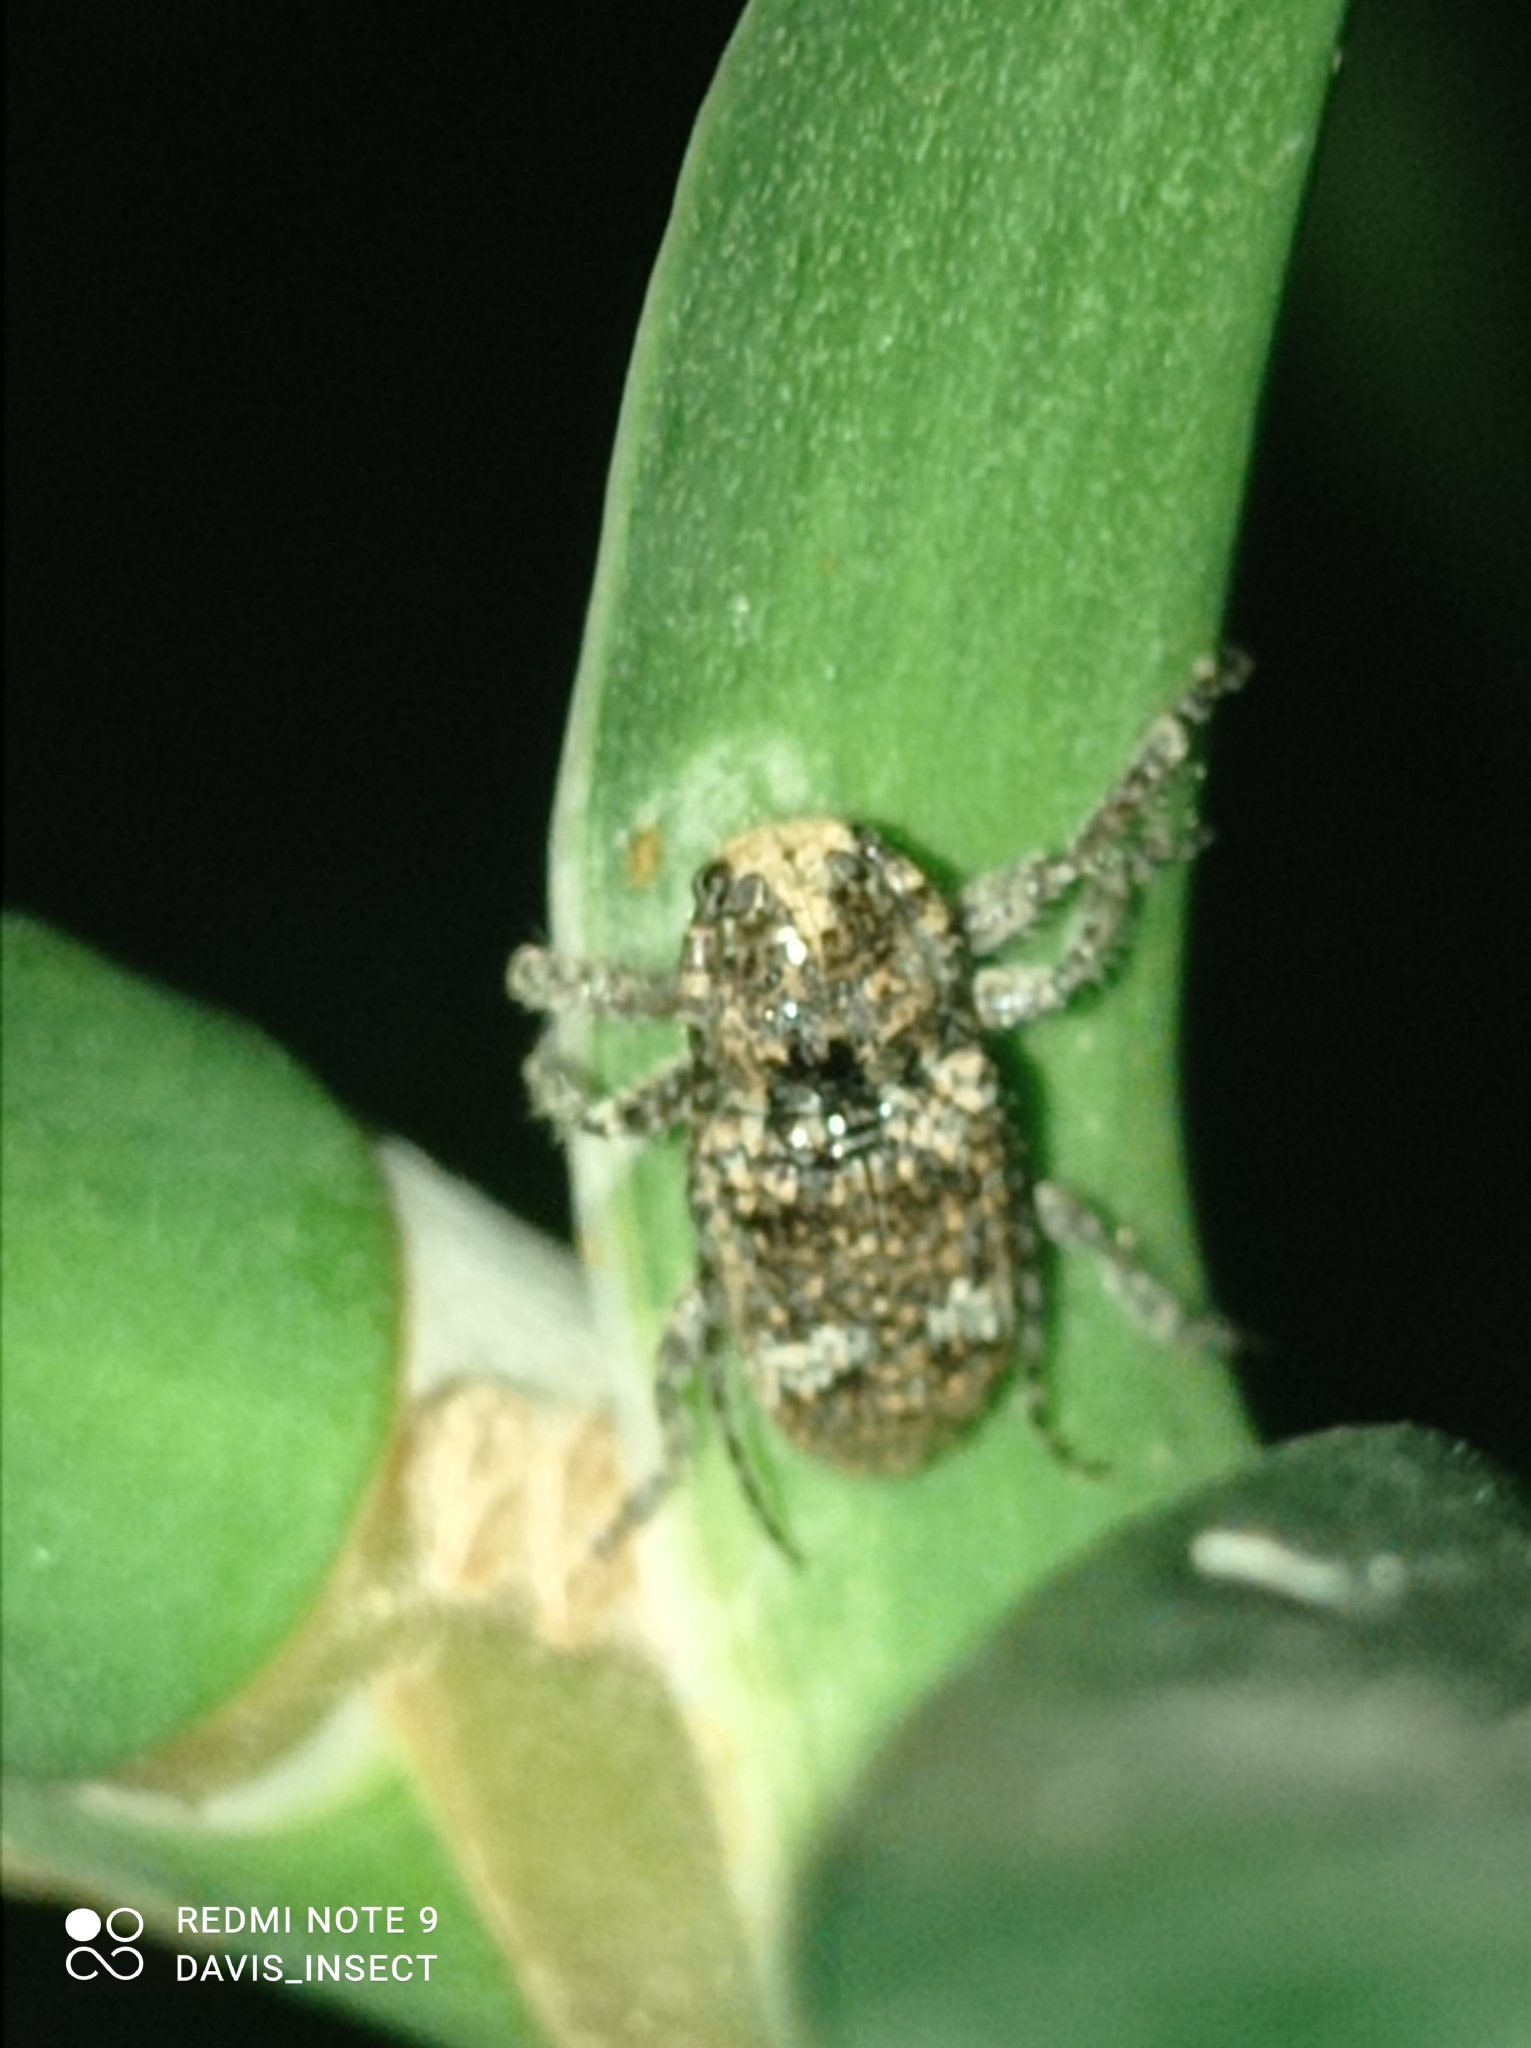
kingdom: Animalia
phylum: Arthropoda
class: Insecta
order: Coleoptera
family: Cerambycidae
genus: Rhytiphora
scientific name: Rhytiphora bankii
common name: Prosoplus long horned beetle
